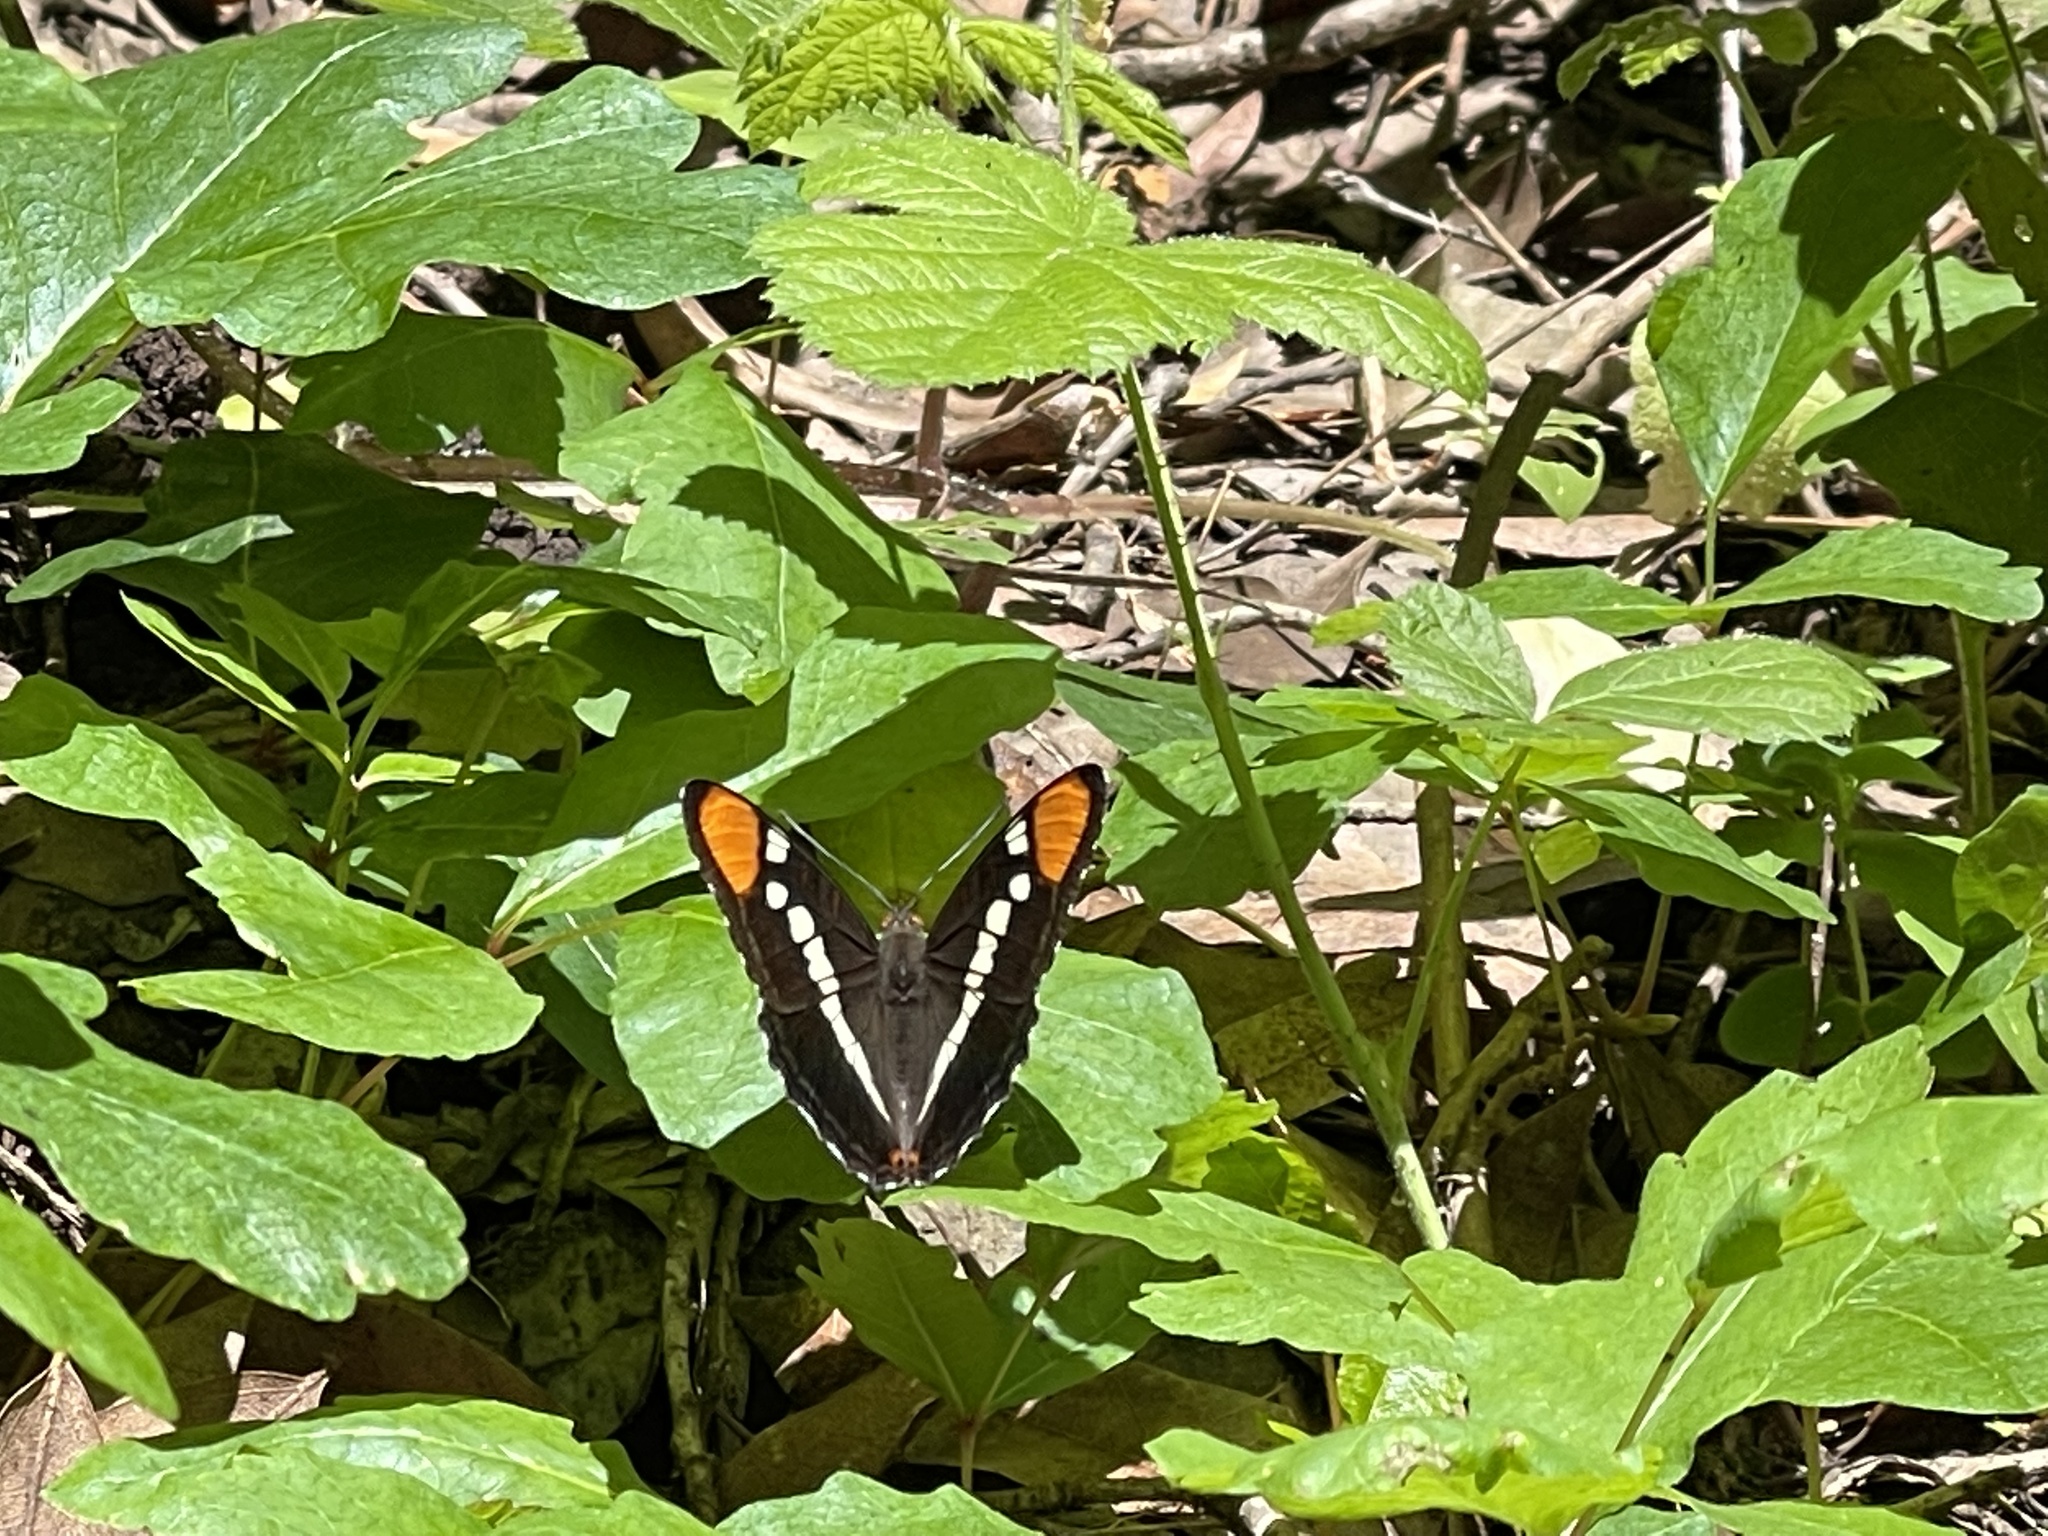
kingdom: Animalia
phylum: Arthropoda
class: Insecta
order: Lepidoptera
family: Nymphalidae
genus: Limenitis
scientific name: Limenitis bredowii
